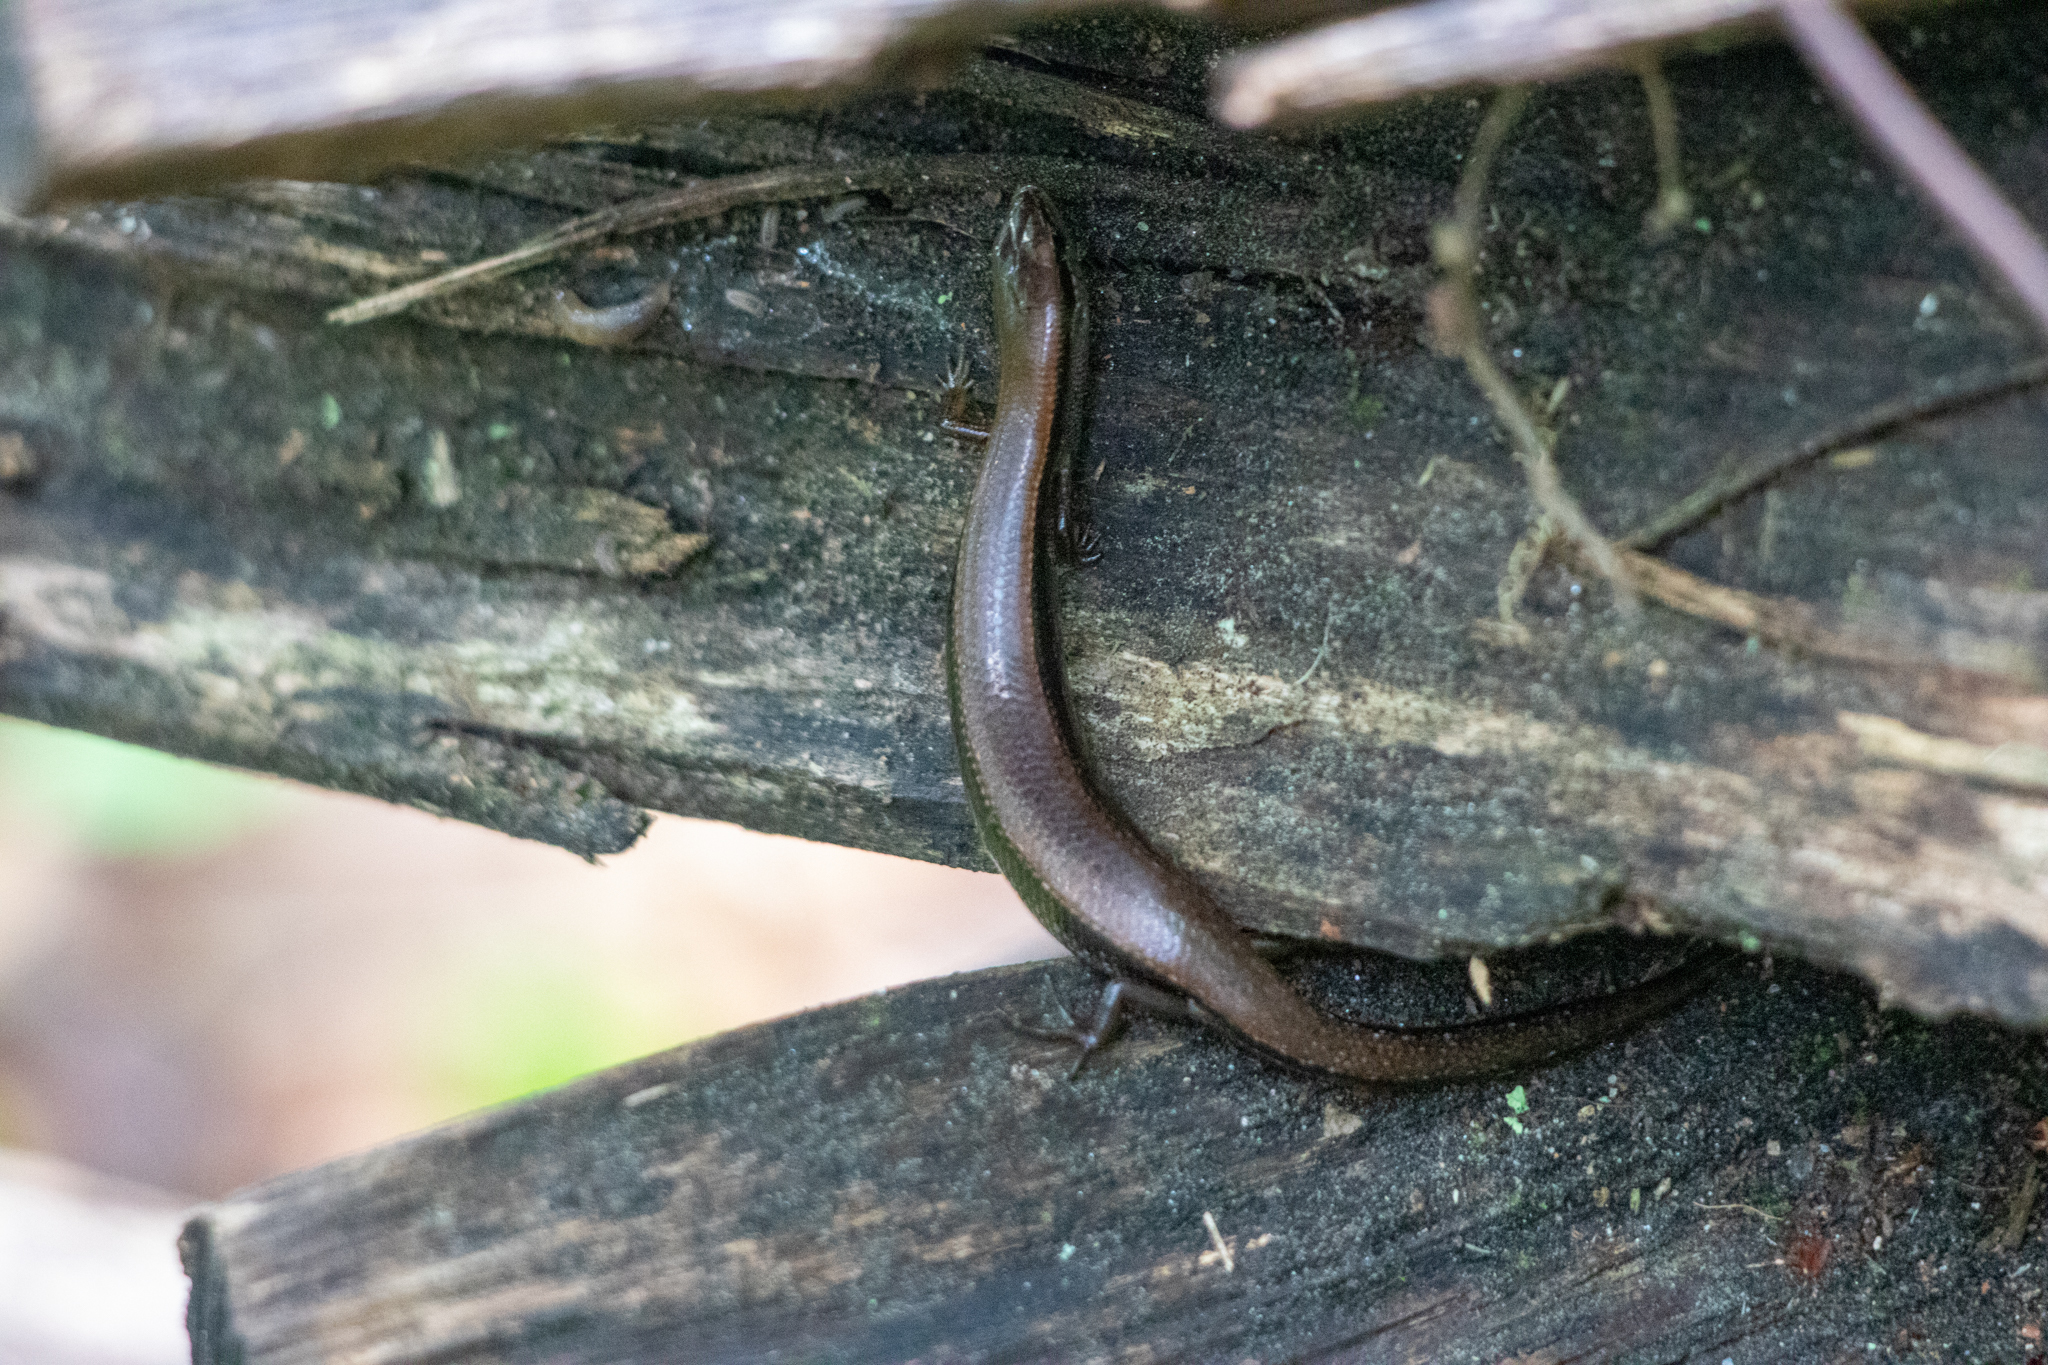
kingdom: Animalia
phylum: Chordata
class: Squamata
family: Scincidae
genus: Scincella
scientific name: Scincella lateralis
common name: Ground skink
